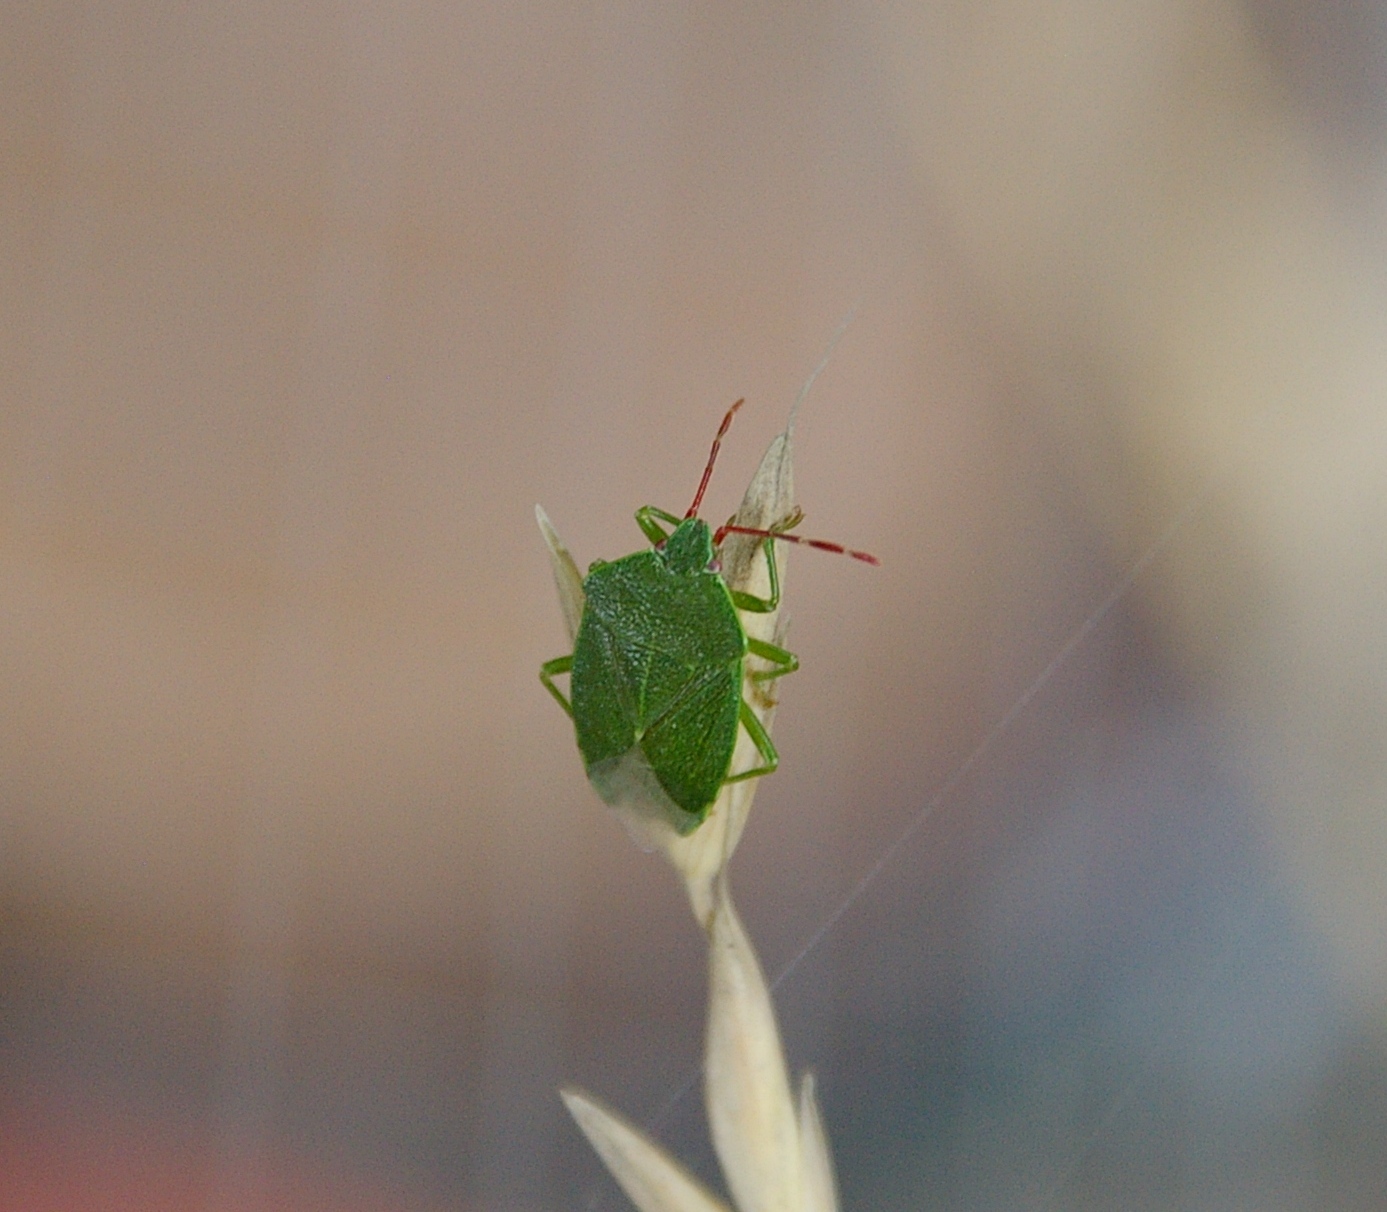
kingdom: Animalia
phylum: Arthropoda
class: Insecta
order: Hemiptera
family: Acanthosomatidae
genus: Sinopla
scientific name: Sinopla perpunctatus
